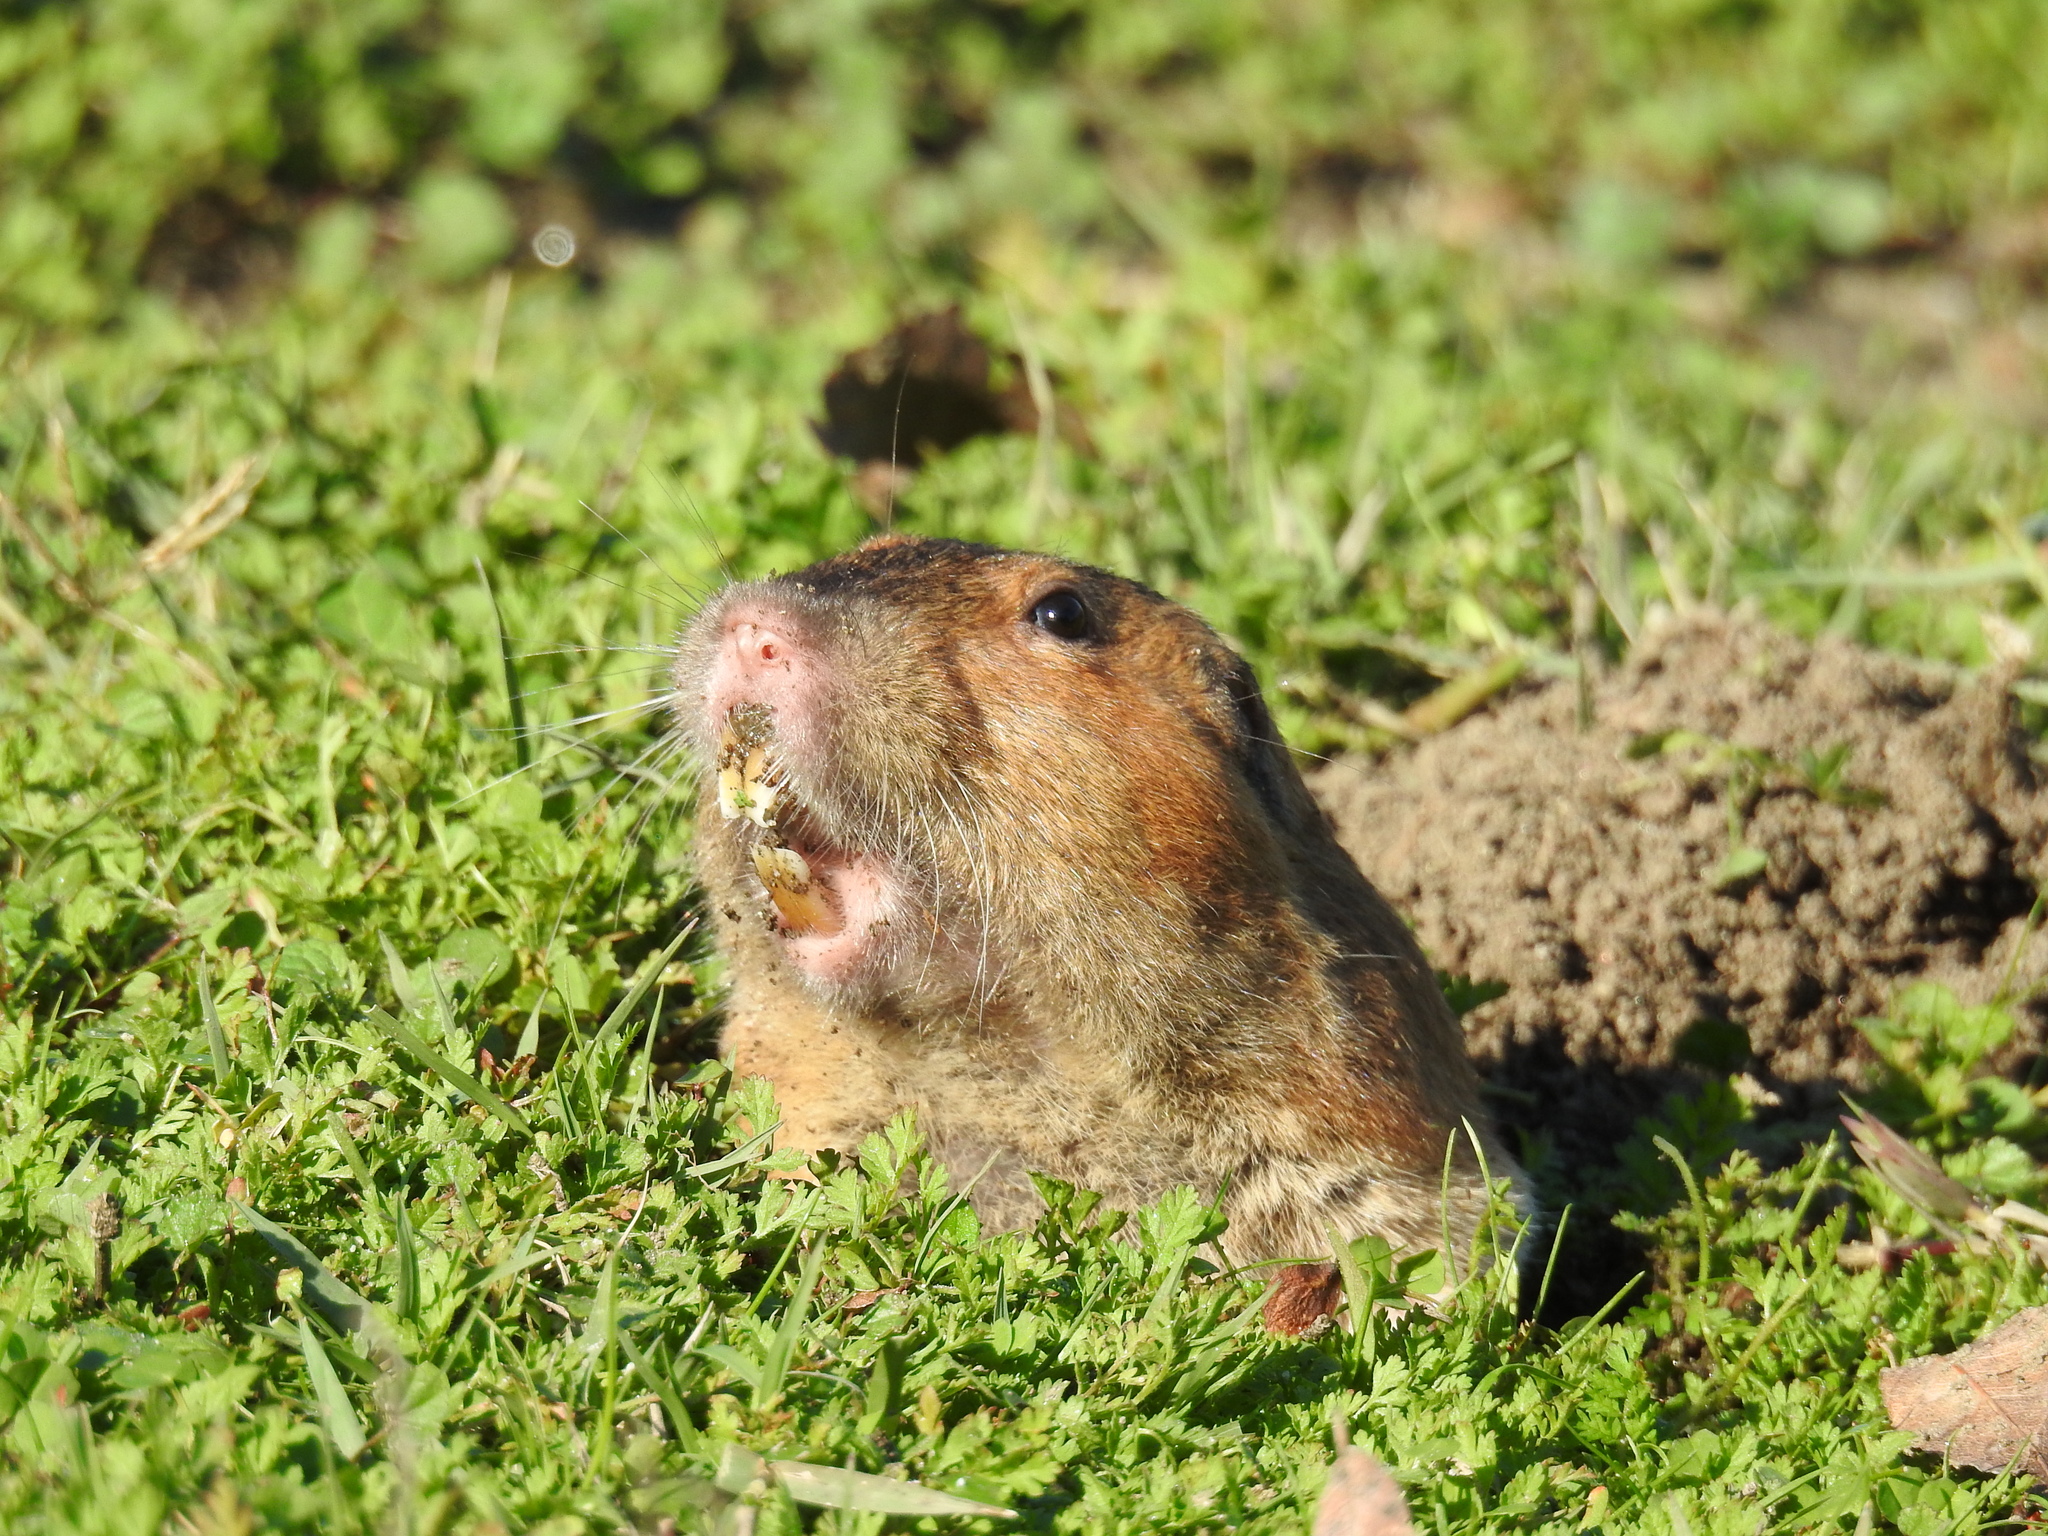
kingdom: Animalia
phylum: Chordata
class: Mammalia
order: Rodentia
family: Geomyidae
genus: Thomomys
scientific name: Thomomys bottae
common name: Botta's pocket gopher
